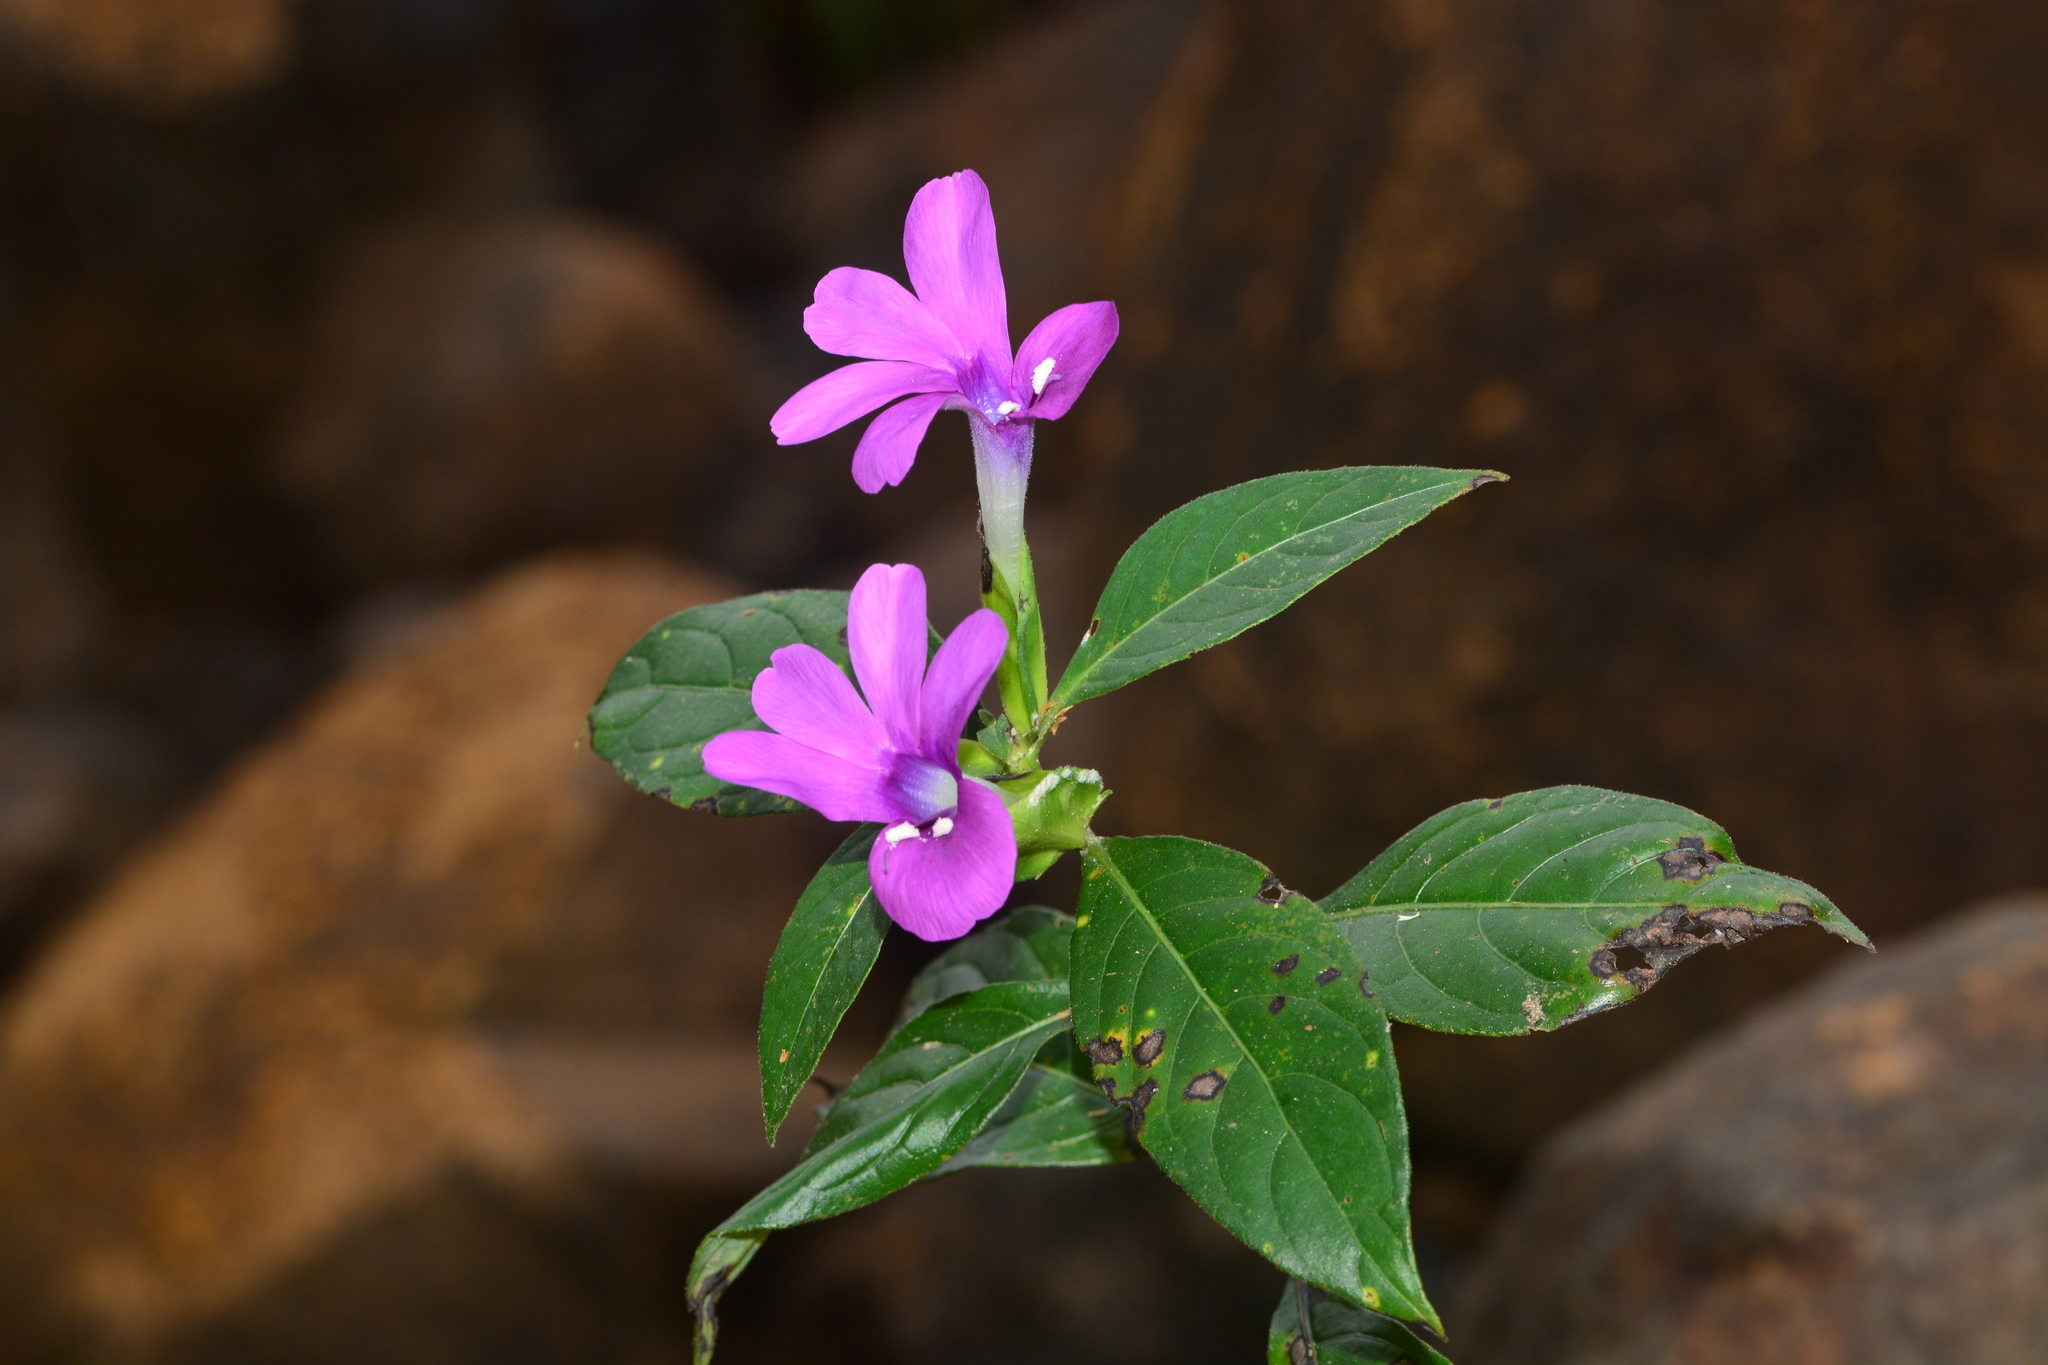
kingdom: Plantae
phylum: Tracheophyta
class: Magnoliopsida
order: Lamiales
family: Acanthaceae
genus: Barleria
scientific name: Barleria prattensis
